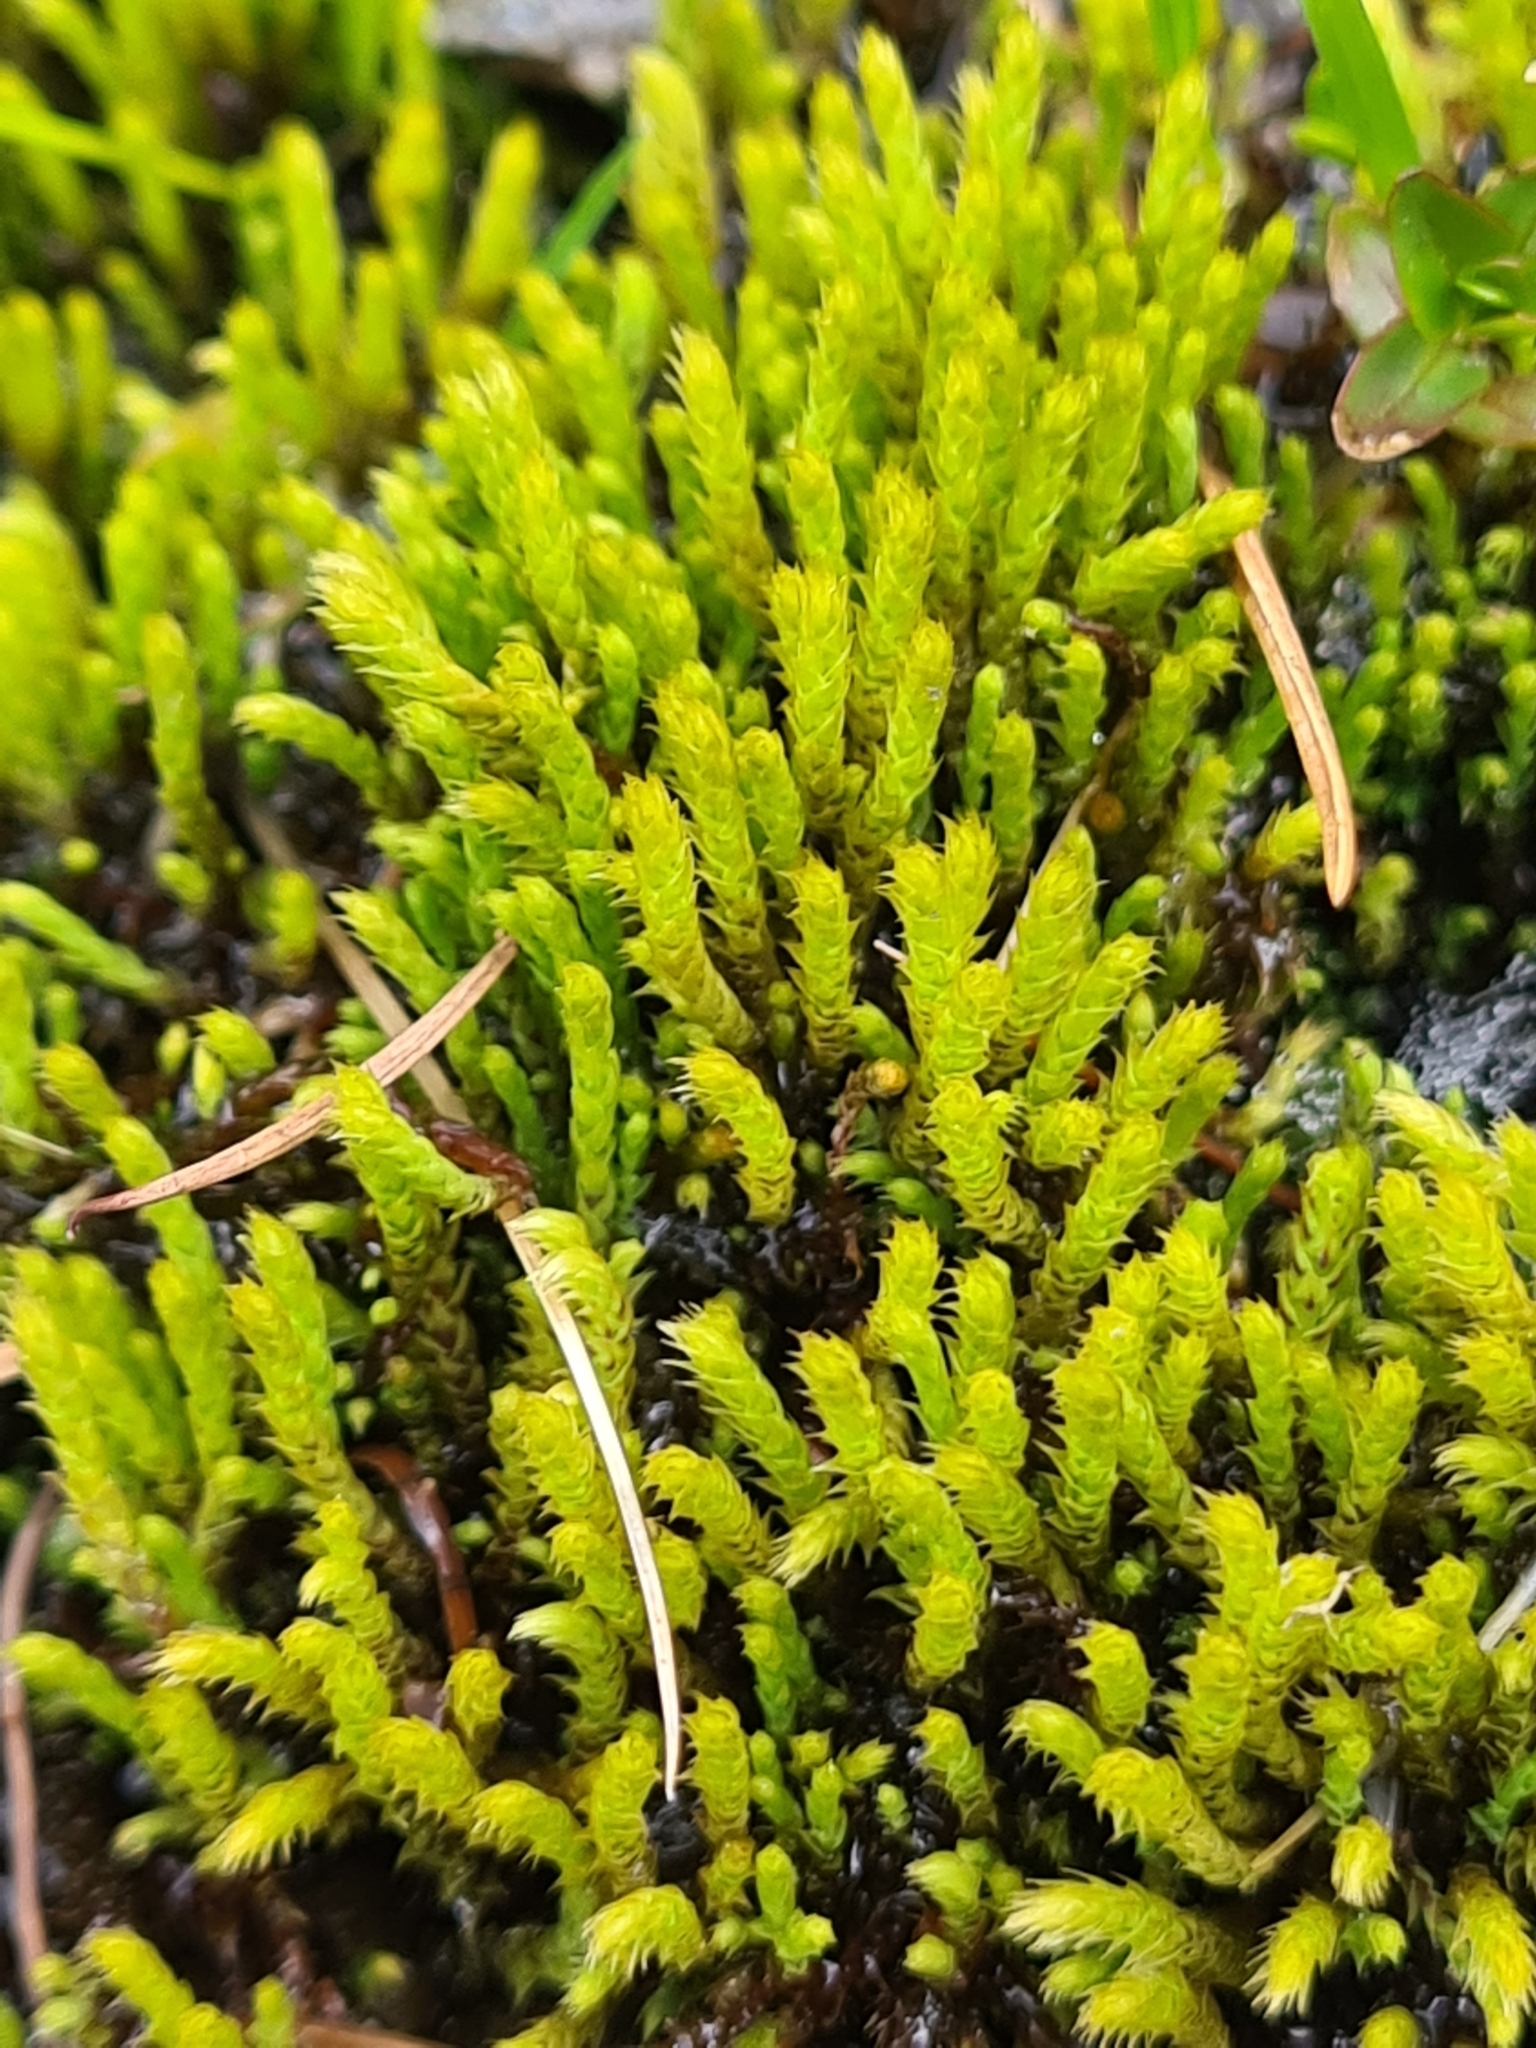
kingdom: Plantae
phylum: Bryophyta
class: Bryopsida
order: Bartramiales
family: Bartramiaceae
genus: Philonotis
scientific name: Philonotis fontana
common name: Fountain apple-moss
